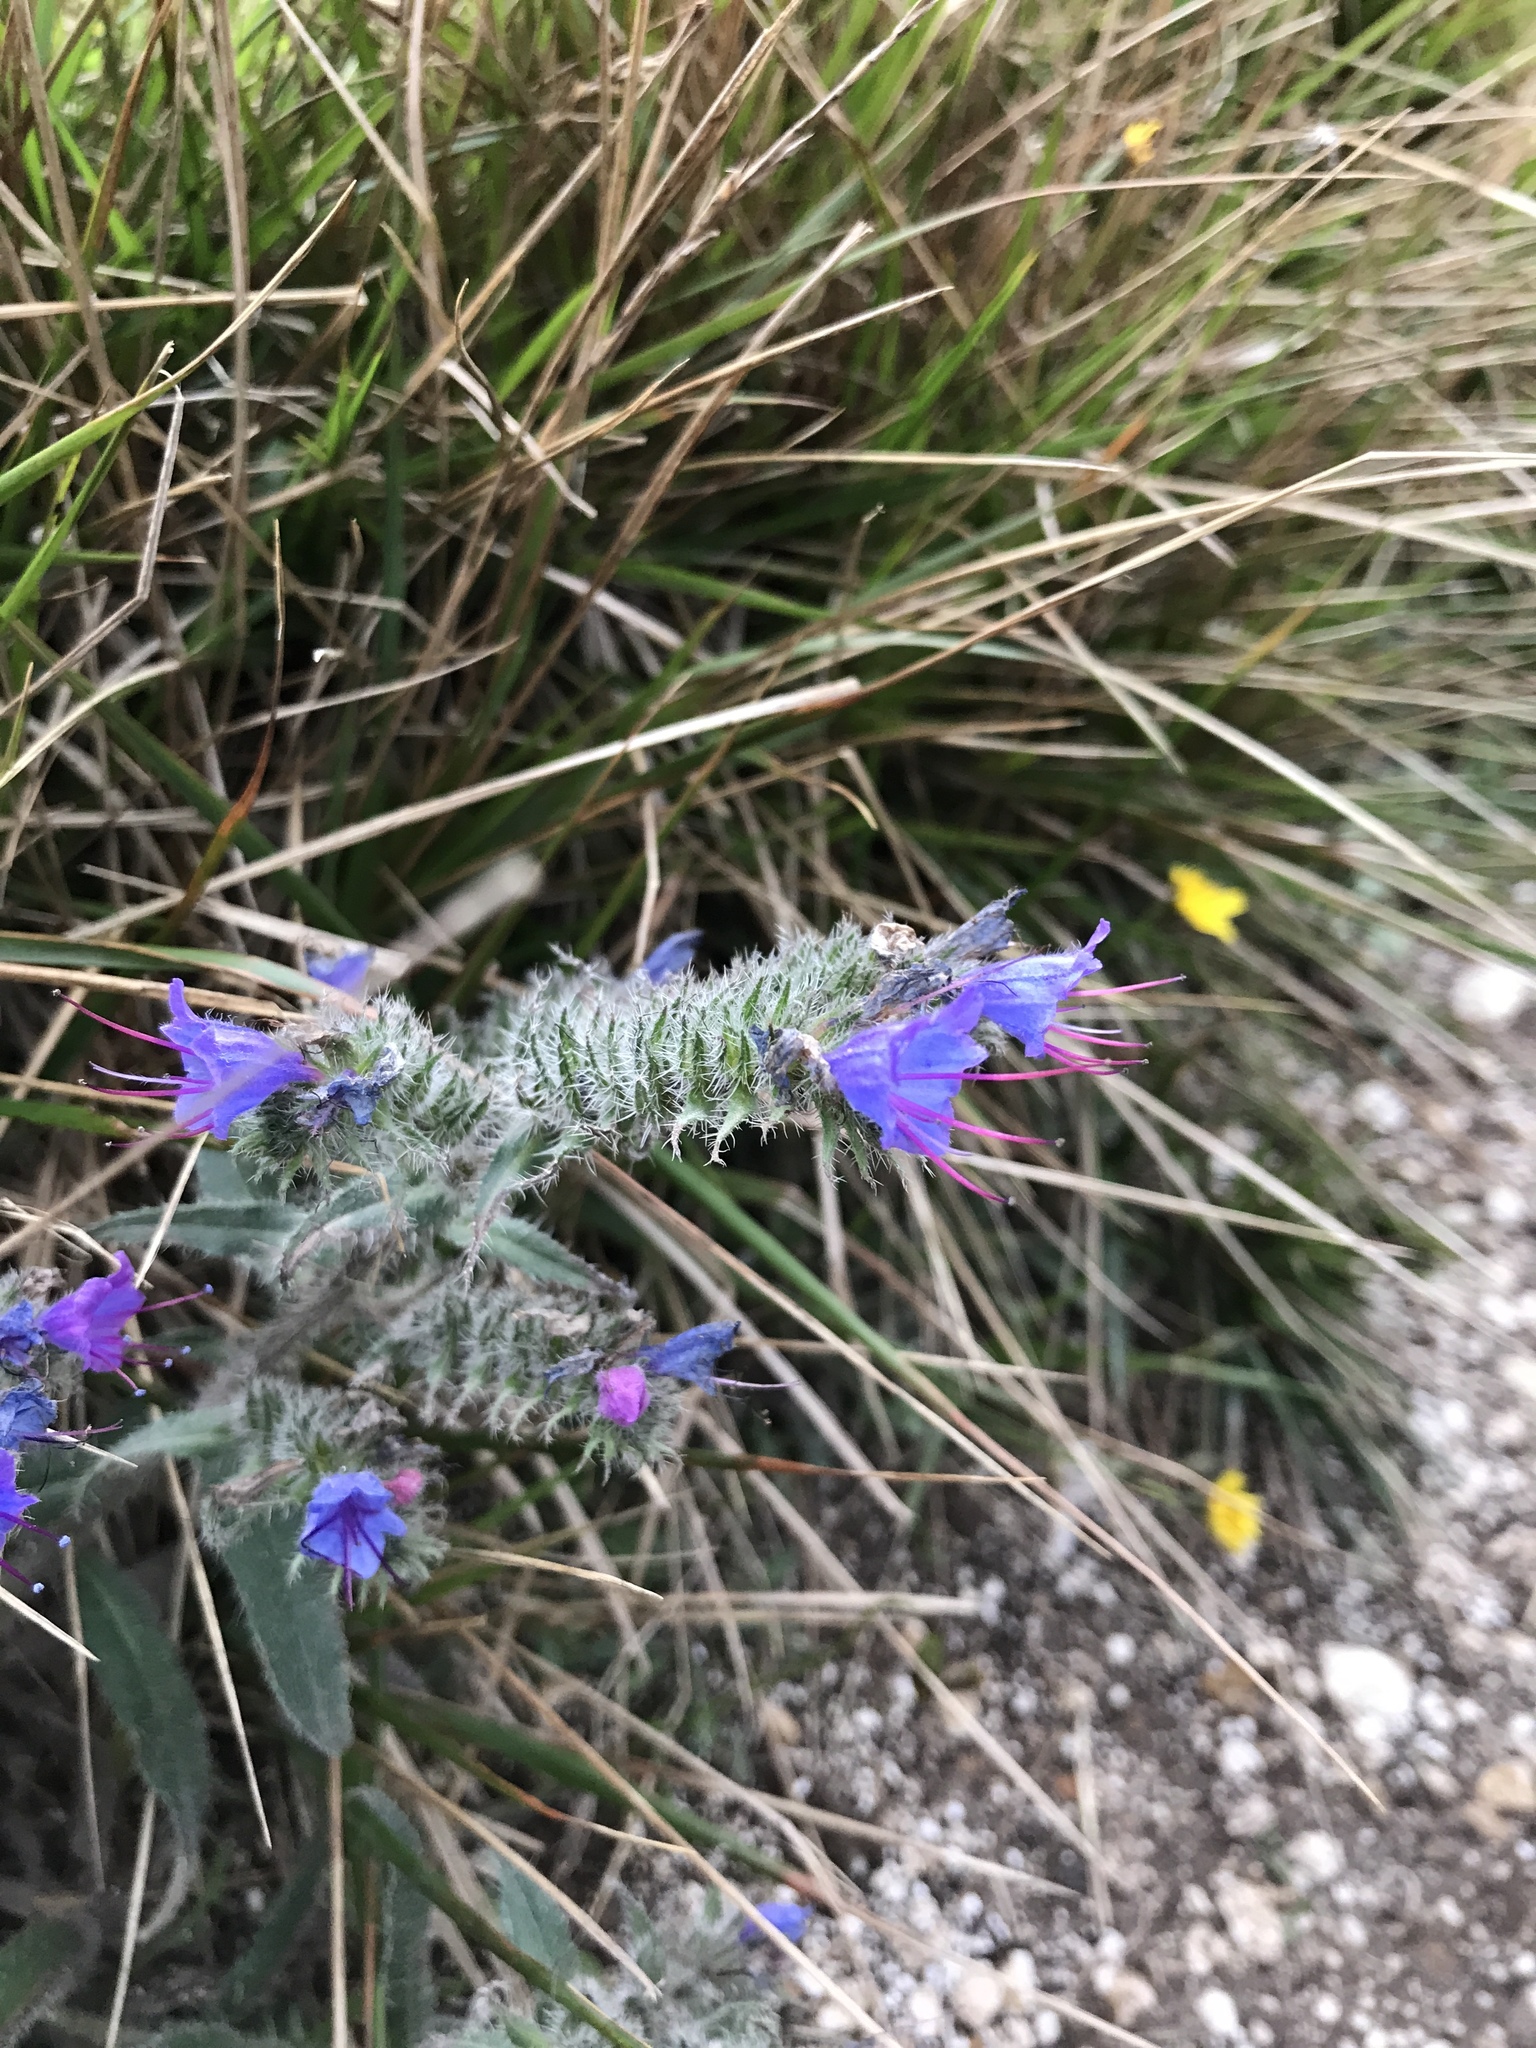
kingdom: Plantae
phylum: Tracheophyta
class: Magnoliopsida
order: Boraginales
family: Boraginaceae
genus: Echium
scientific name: Echium vulgare
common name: Common viper's bugloss
